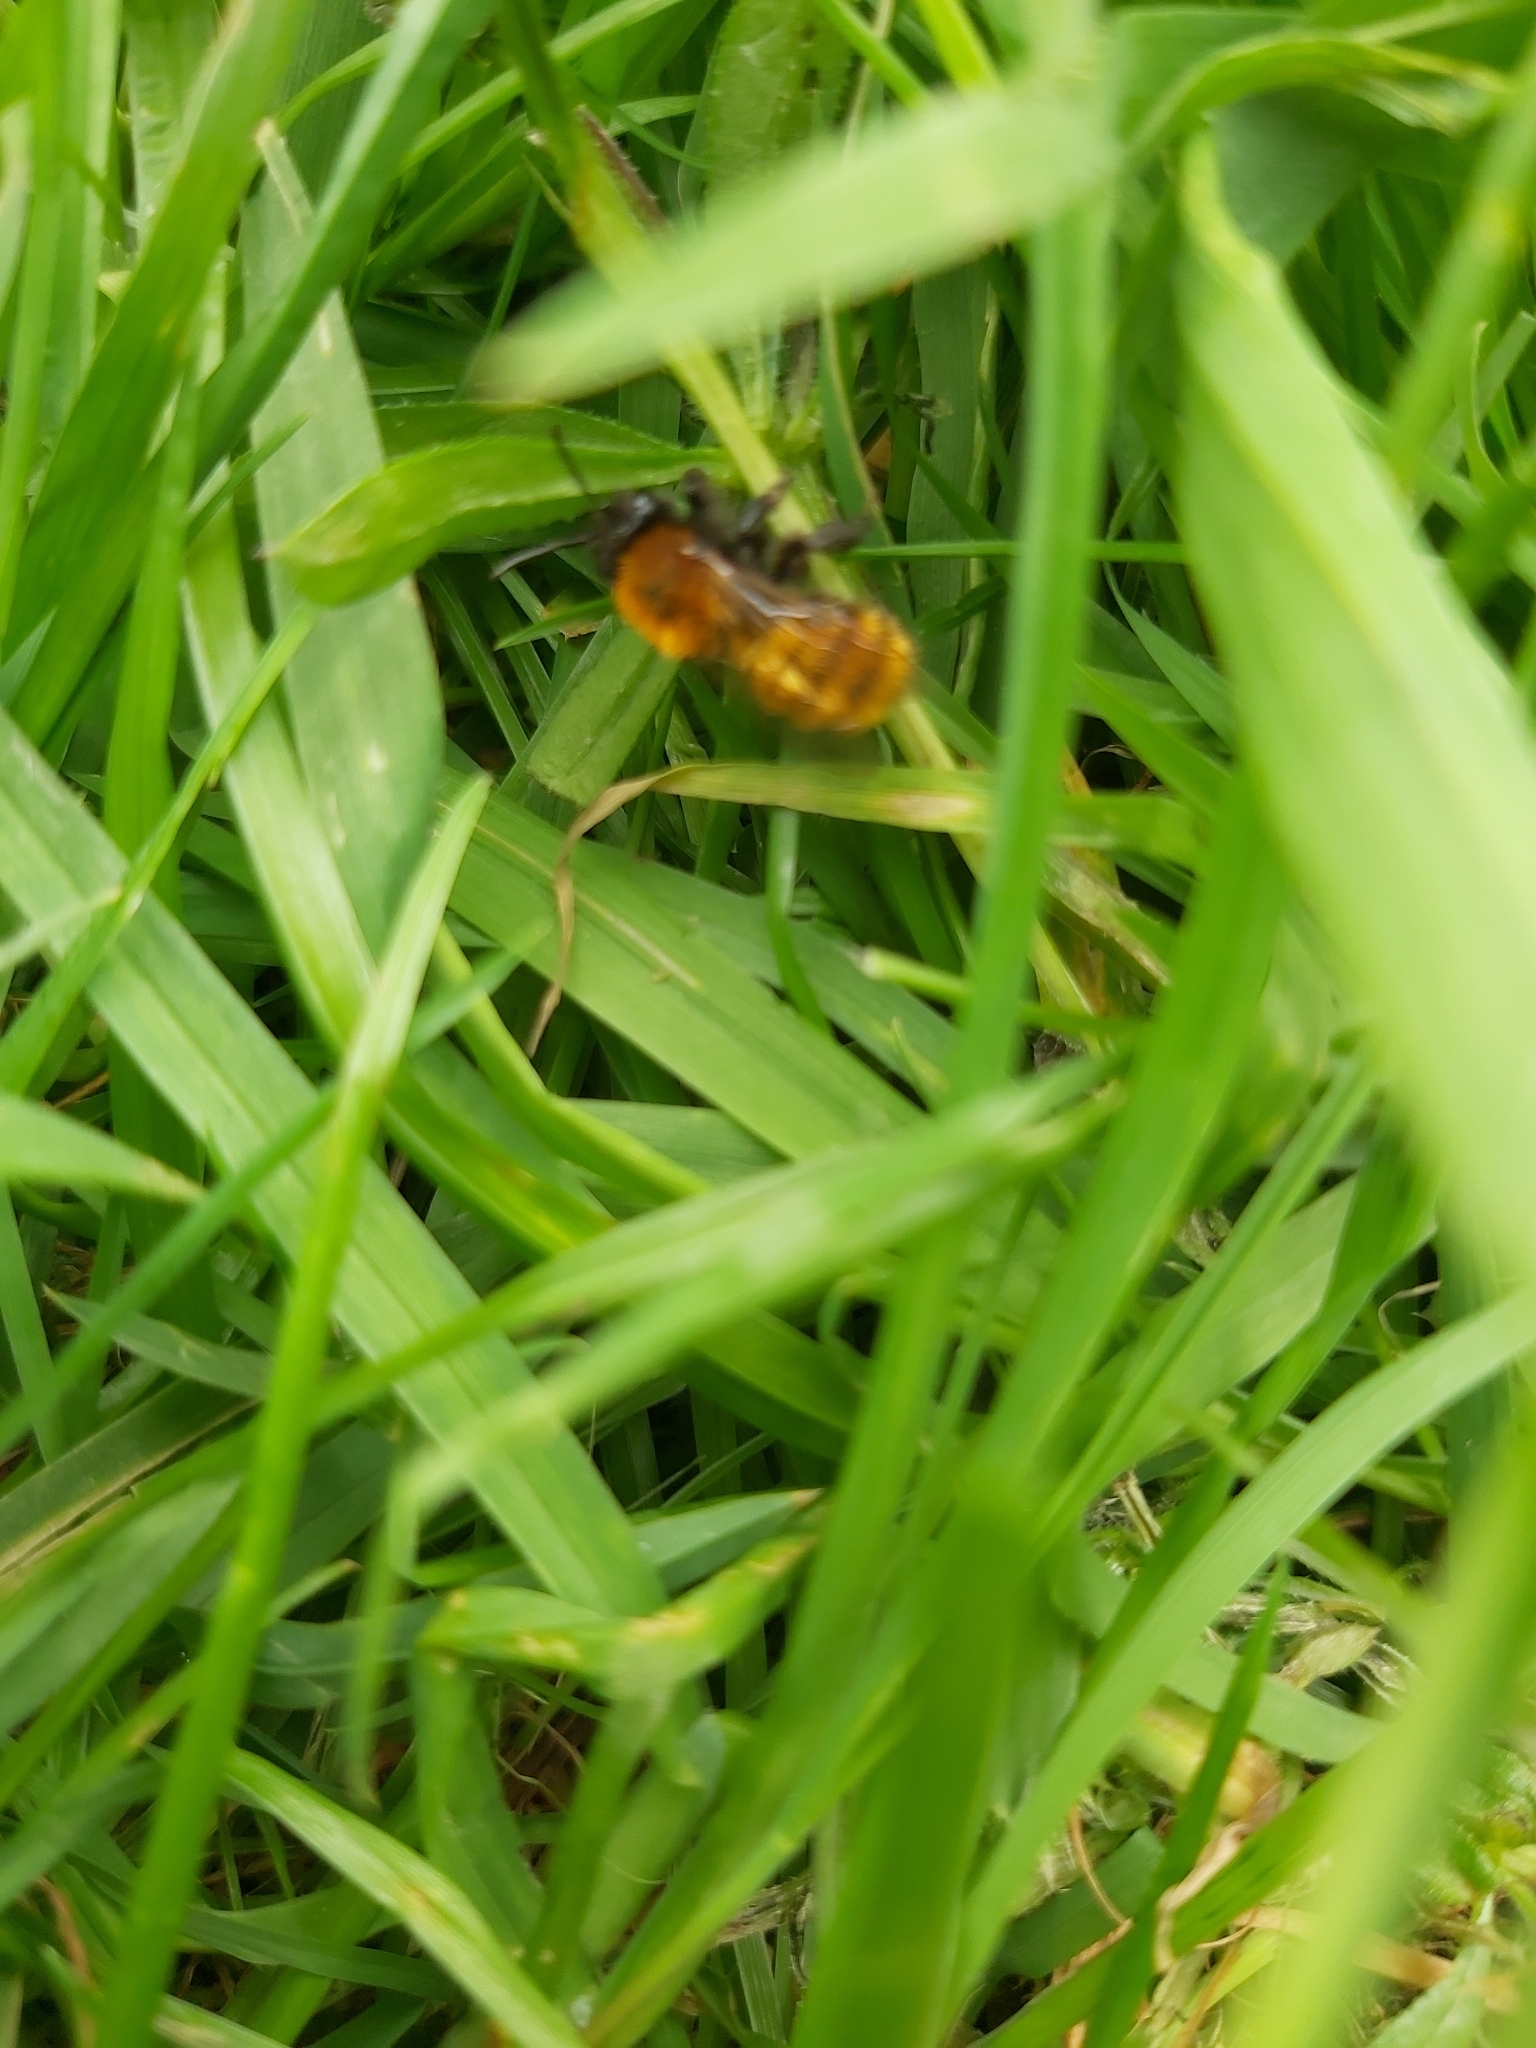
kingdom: Animalia
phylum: Arthropoda
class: Insecta
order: Hymenoptera
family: Andrenidae
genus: Andrena
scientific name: Andrena fulva
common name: Tawny mining bee
